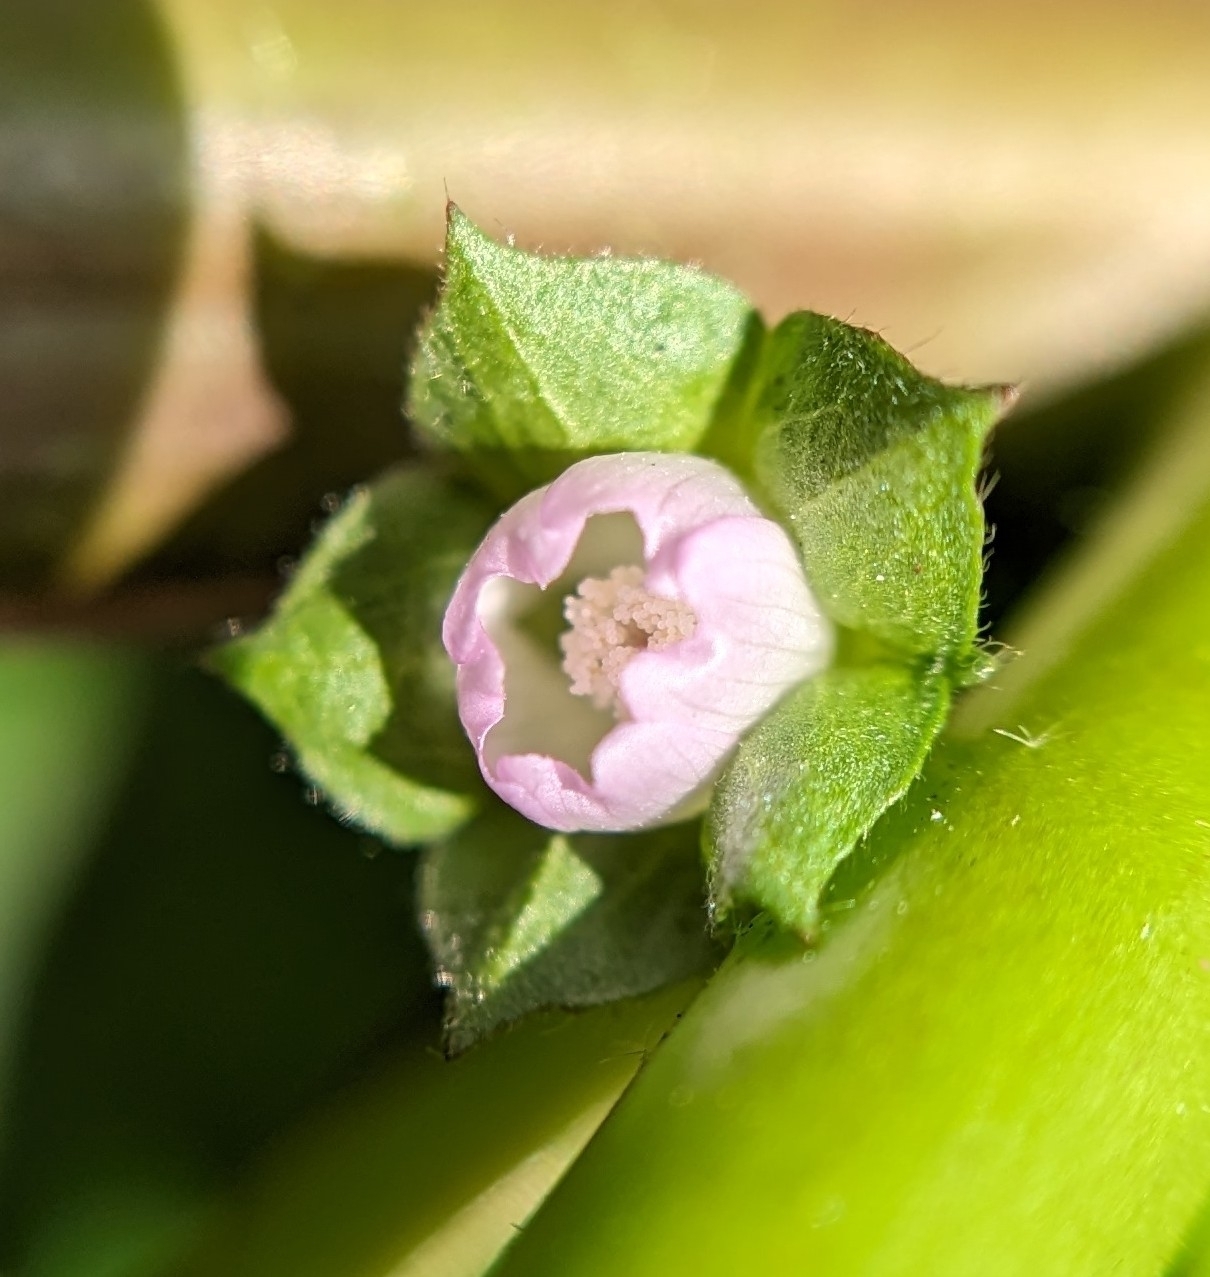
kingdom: Plantae
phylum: Tracheophyta
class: Magnoliopsida
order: Malvales
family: Malvaceae
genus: Malva
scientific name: Malva parviflora
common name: Least mallow
